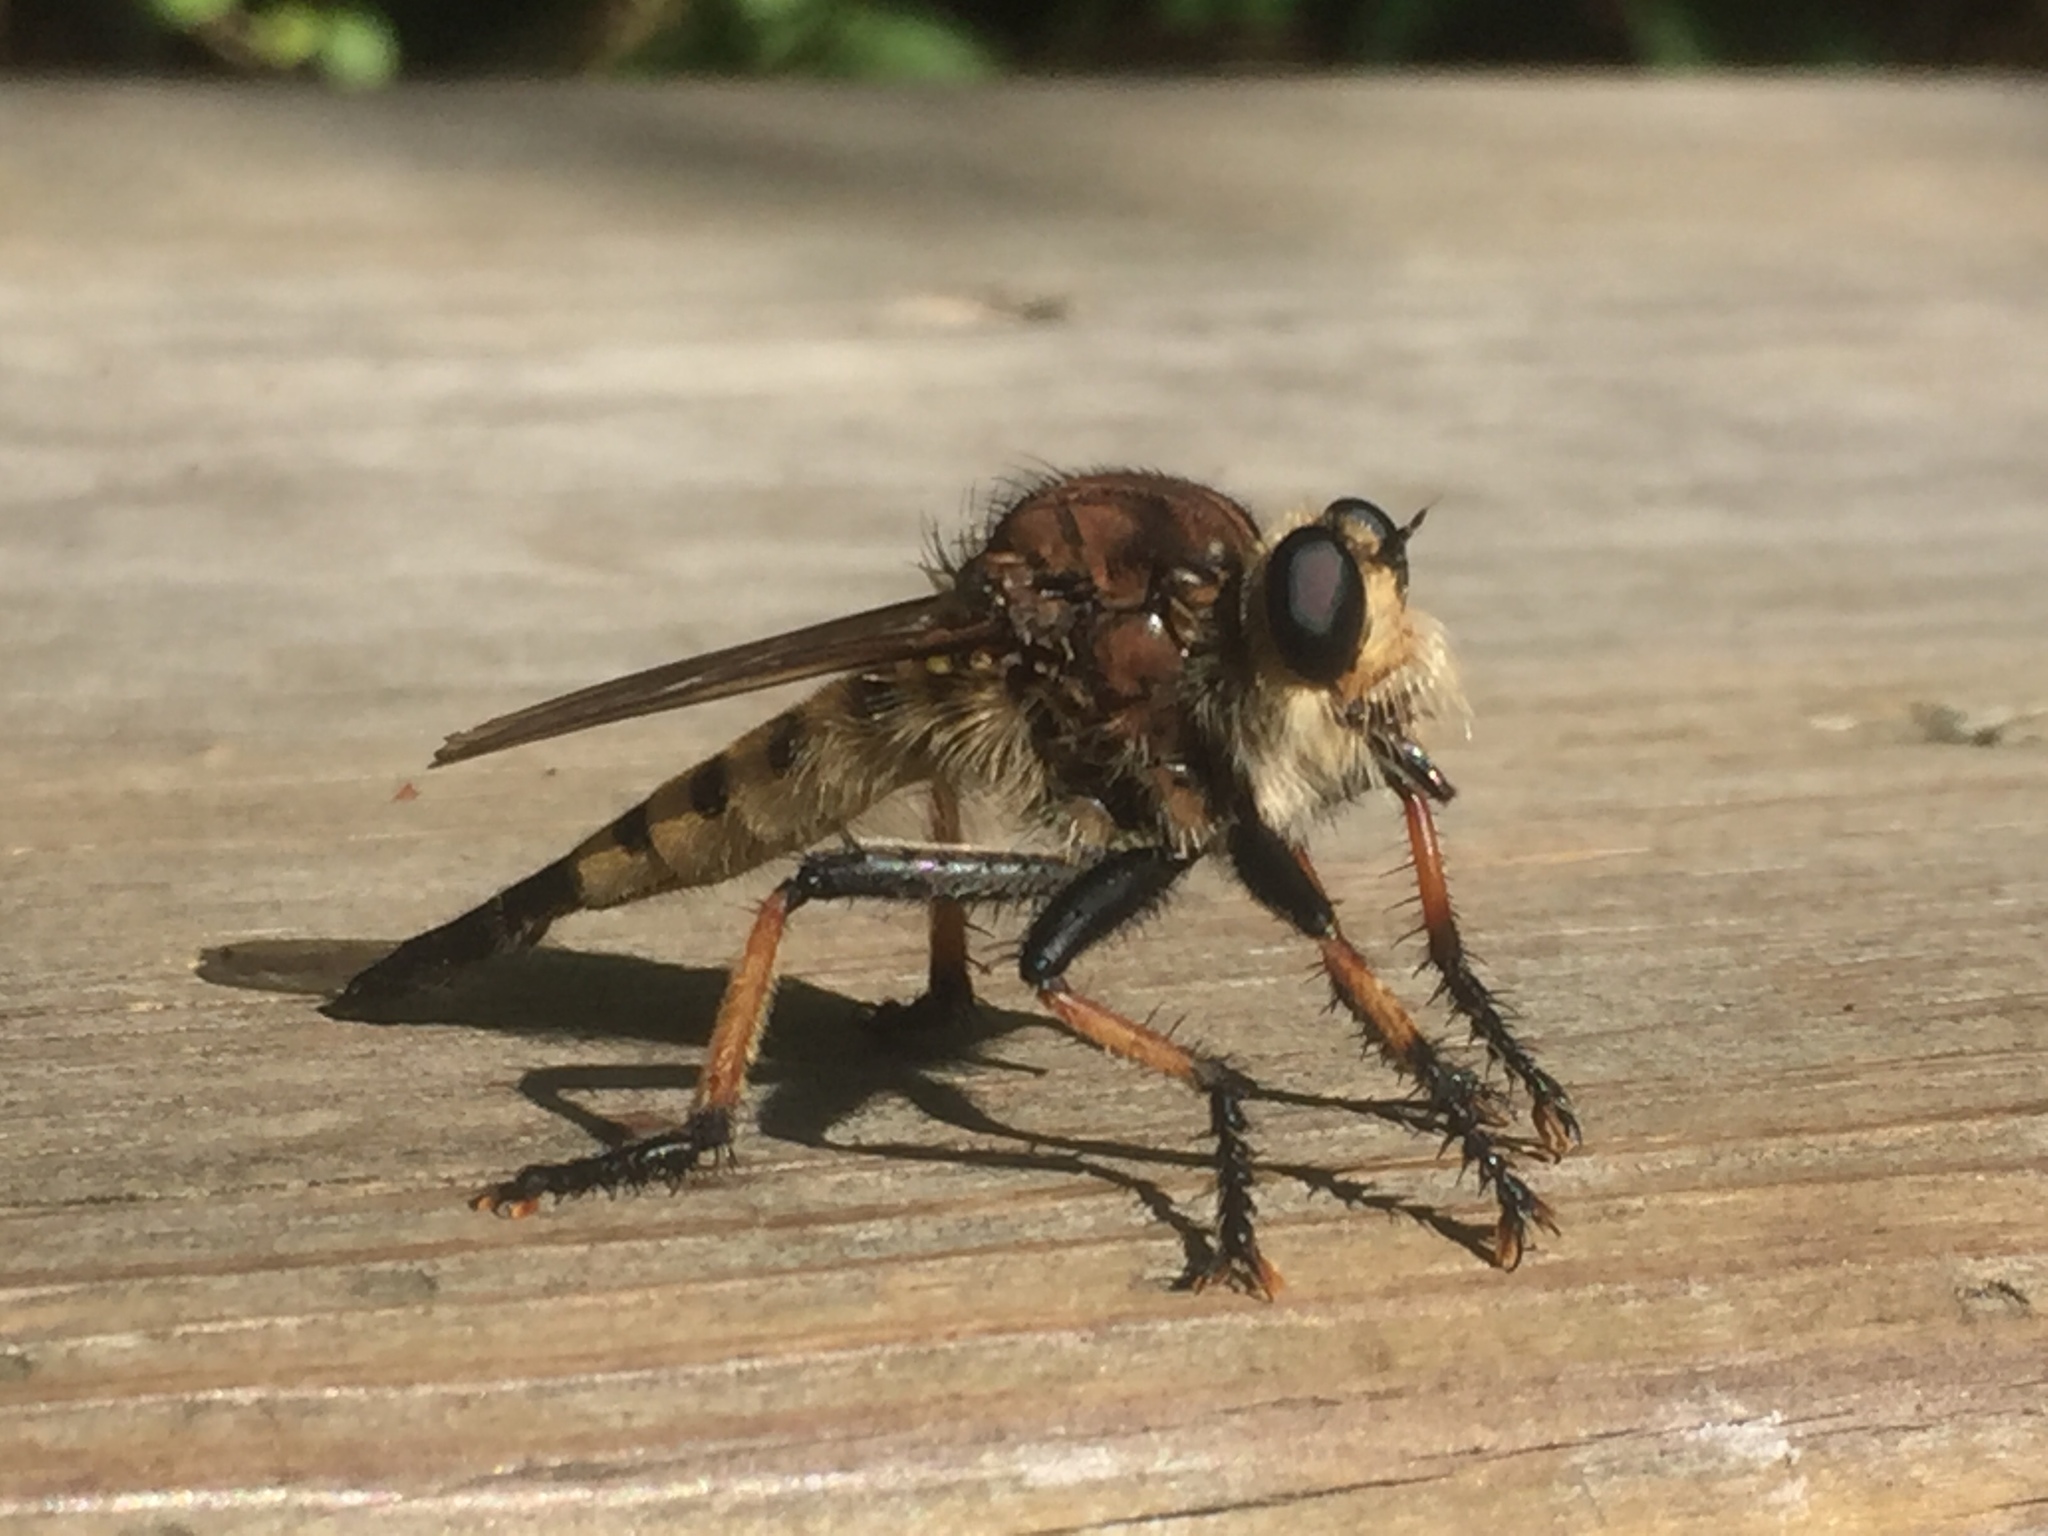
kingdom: Animalia
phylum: Arthropoda
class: Insecta
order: Diptera
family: Asilidae
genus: Promachus
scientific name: Promachus rufipes
